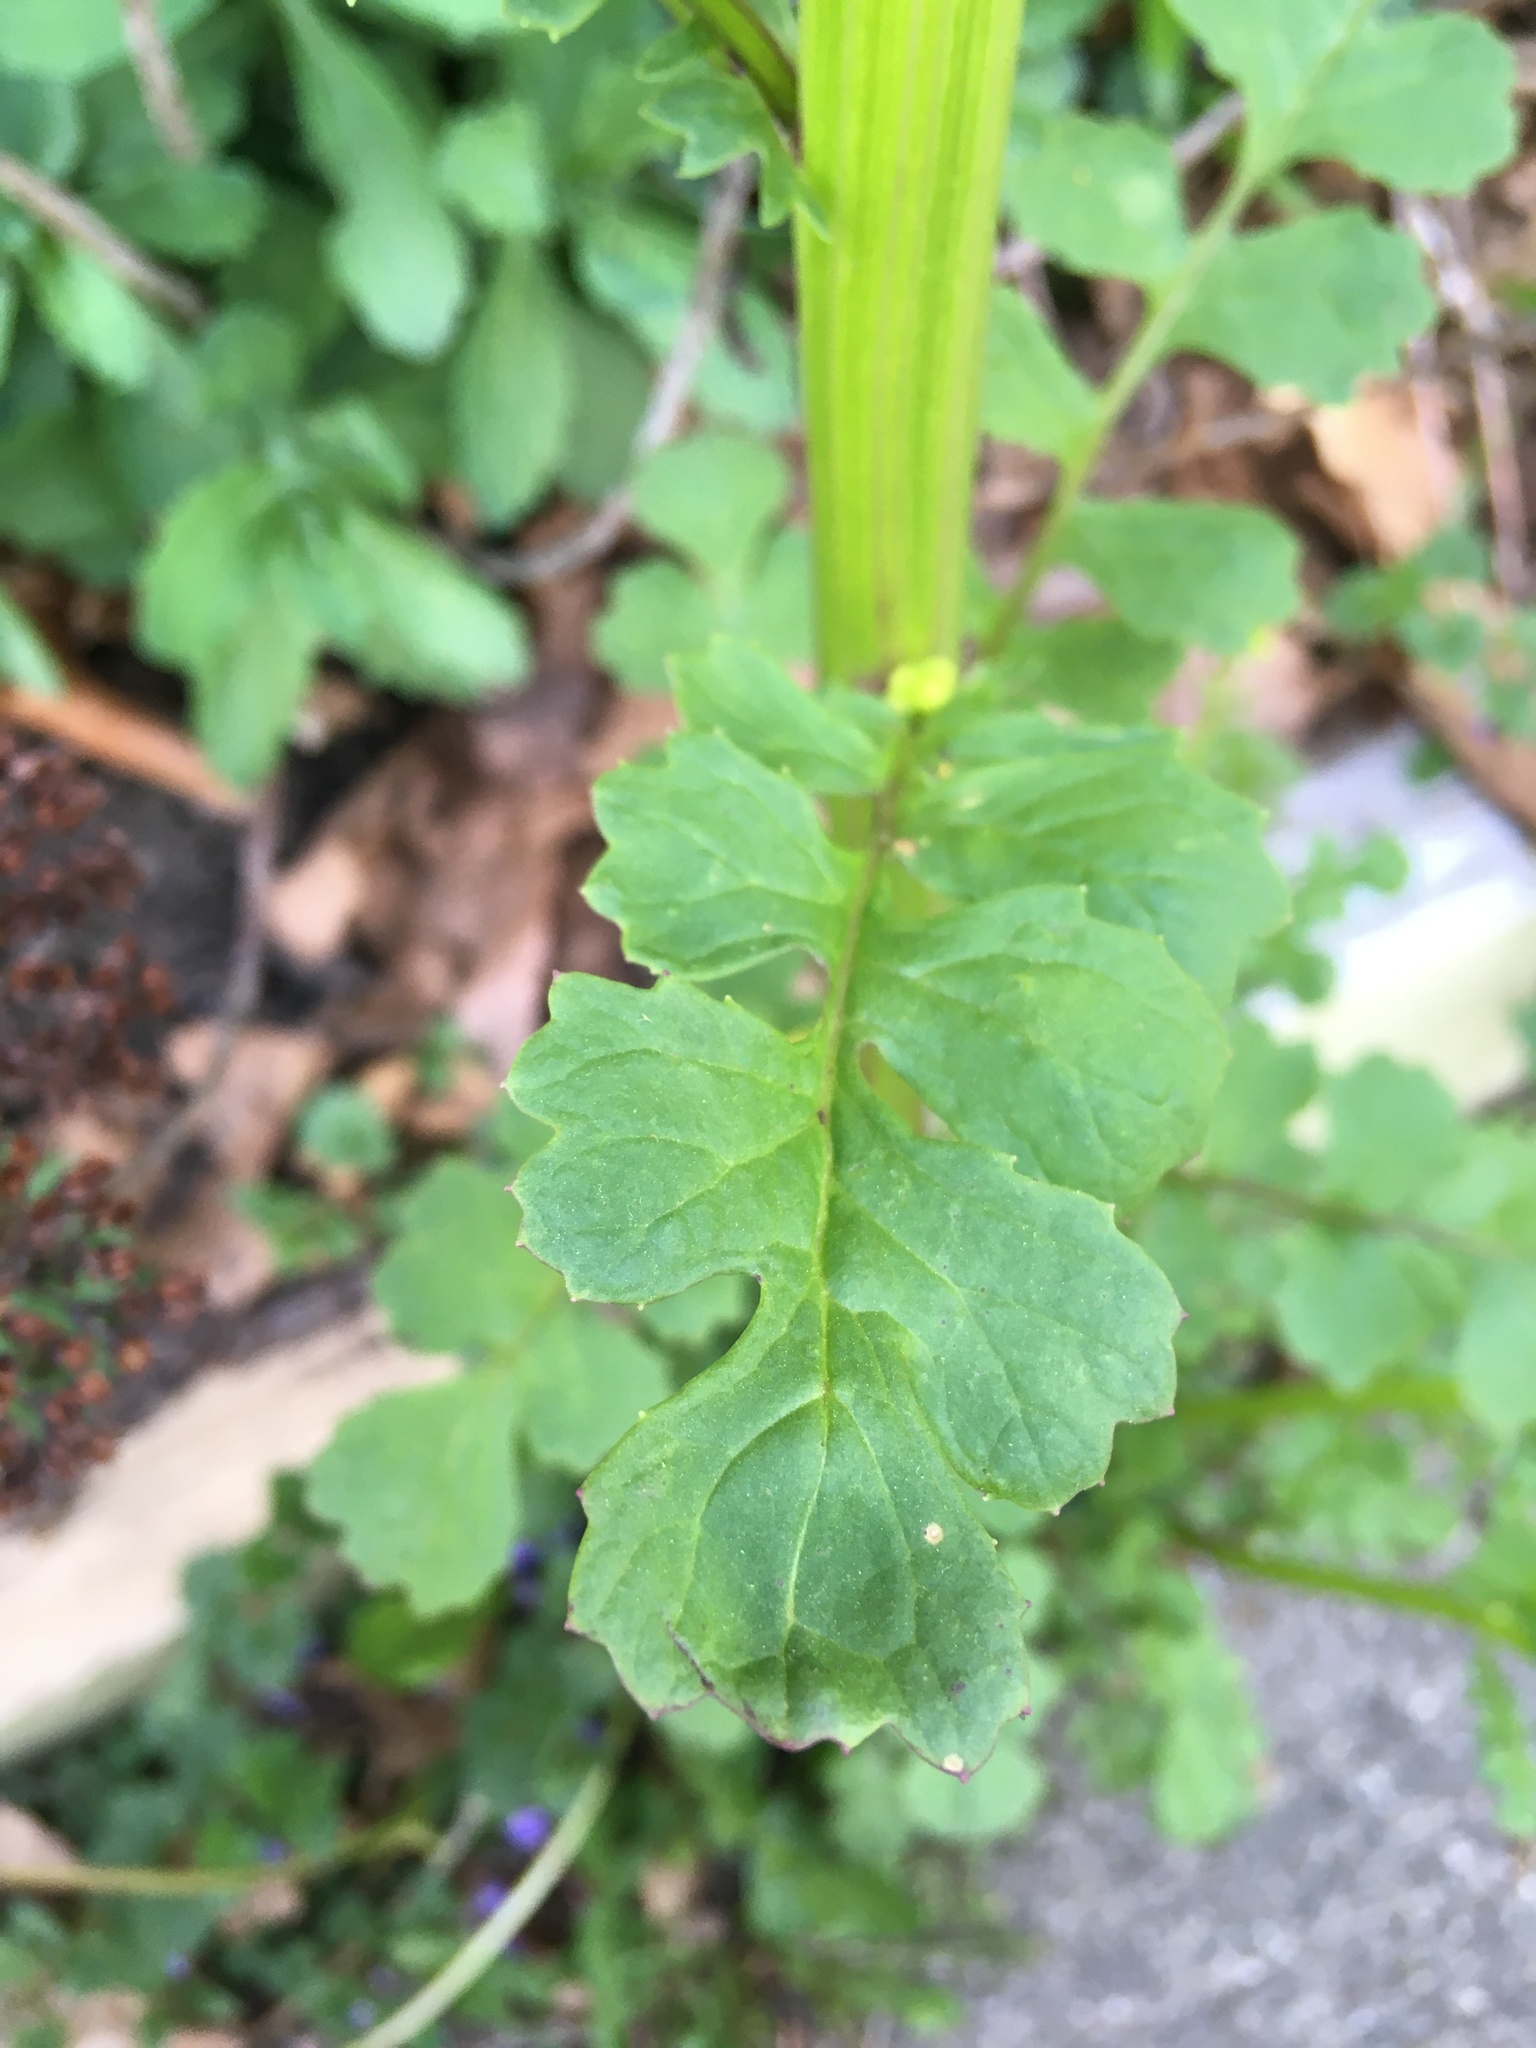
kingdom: Plantae
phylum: Tracheophyta
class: Magnoliopsida
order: Asterales
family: Asteraceae
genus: Packera
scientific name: Packera glabella
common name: Butterweed
